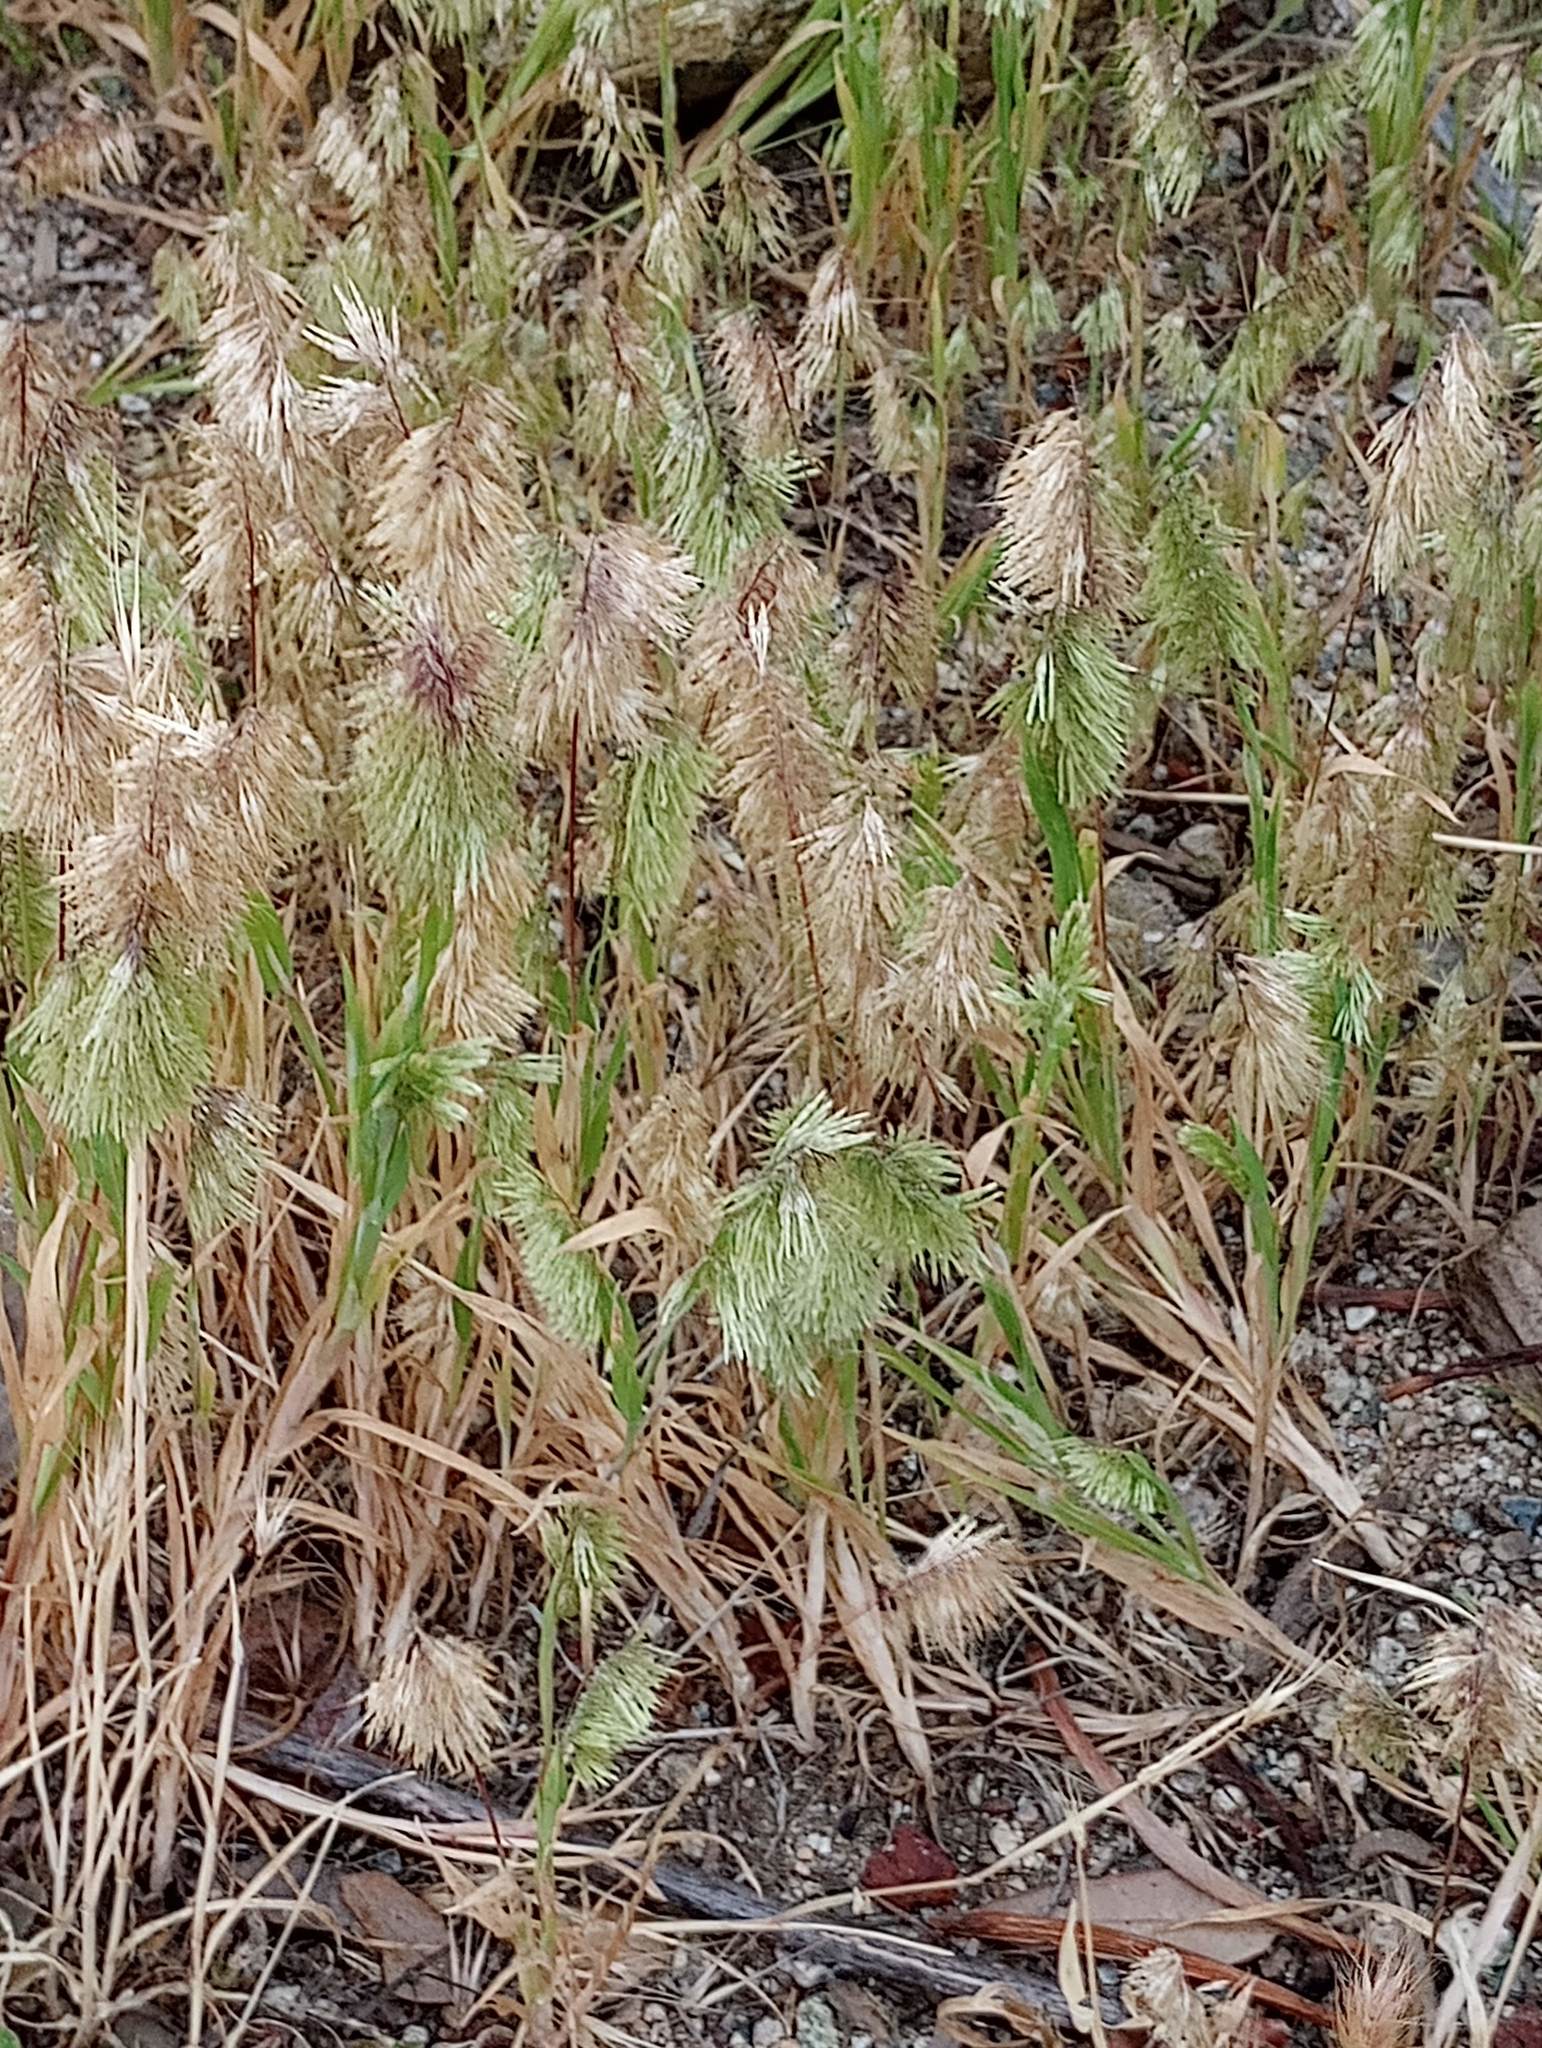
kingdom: Plantae
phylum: Tracheophyta
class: Liliopsida
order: Poales
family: Poaceae
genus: Lamarckia
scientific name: Lamarckia aurea
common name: Golden dog's-tail
